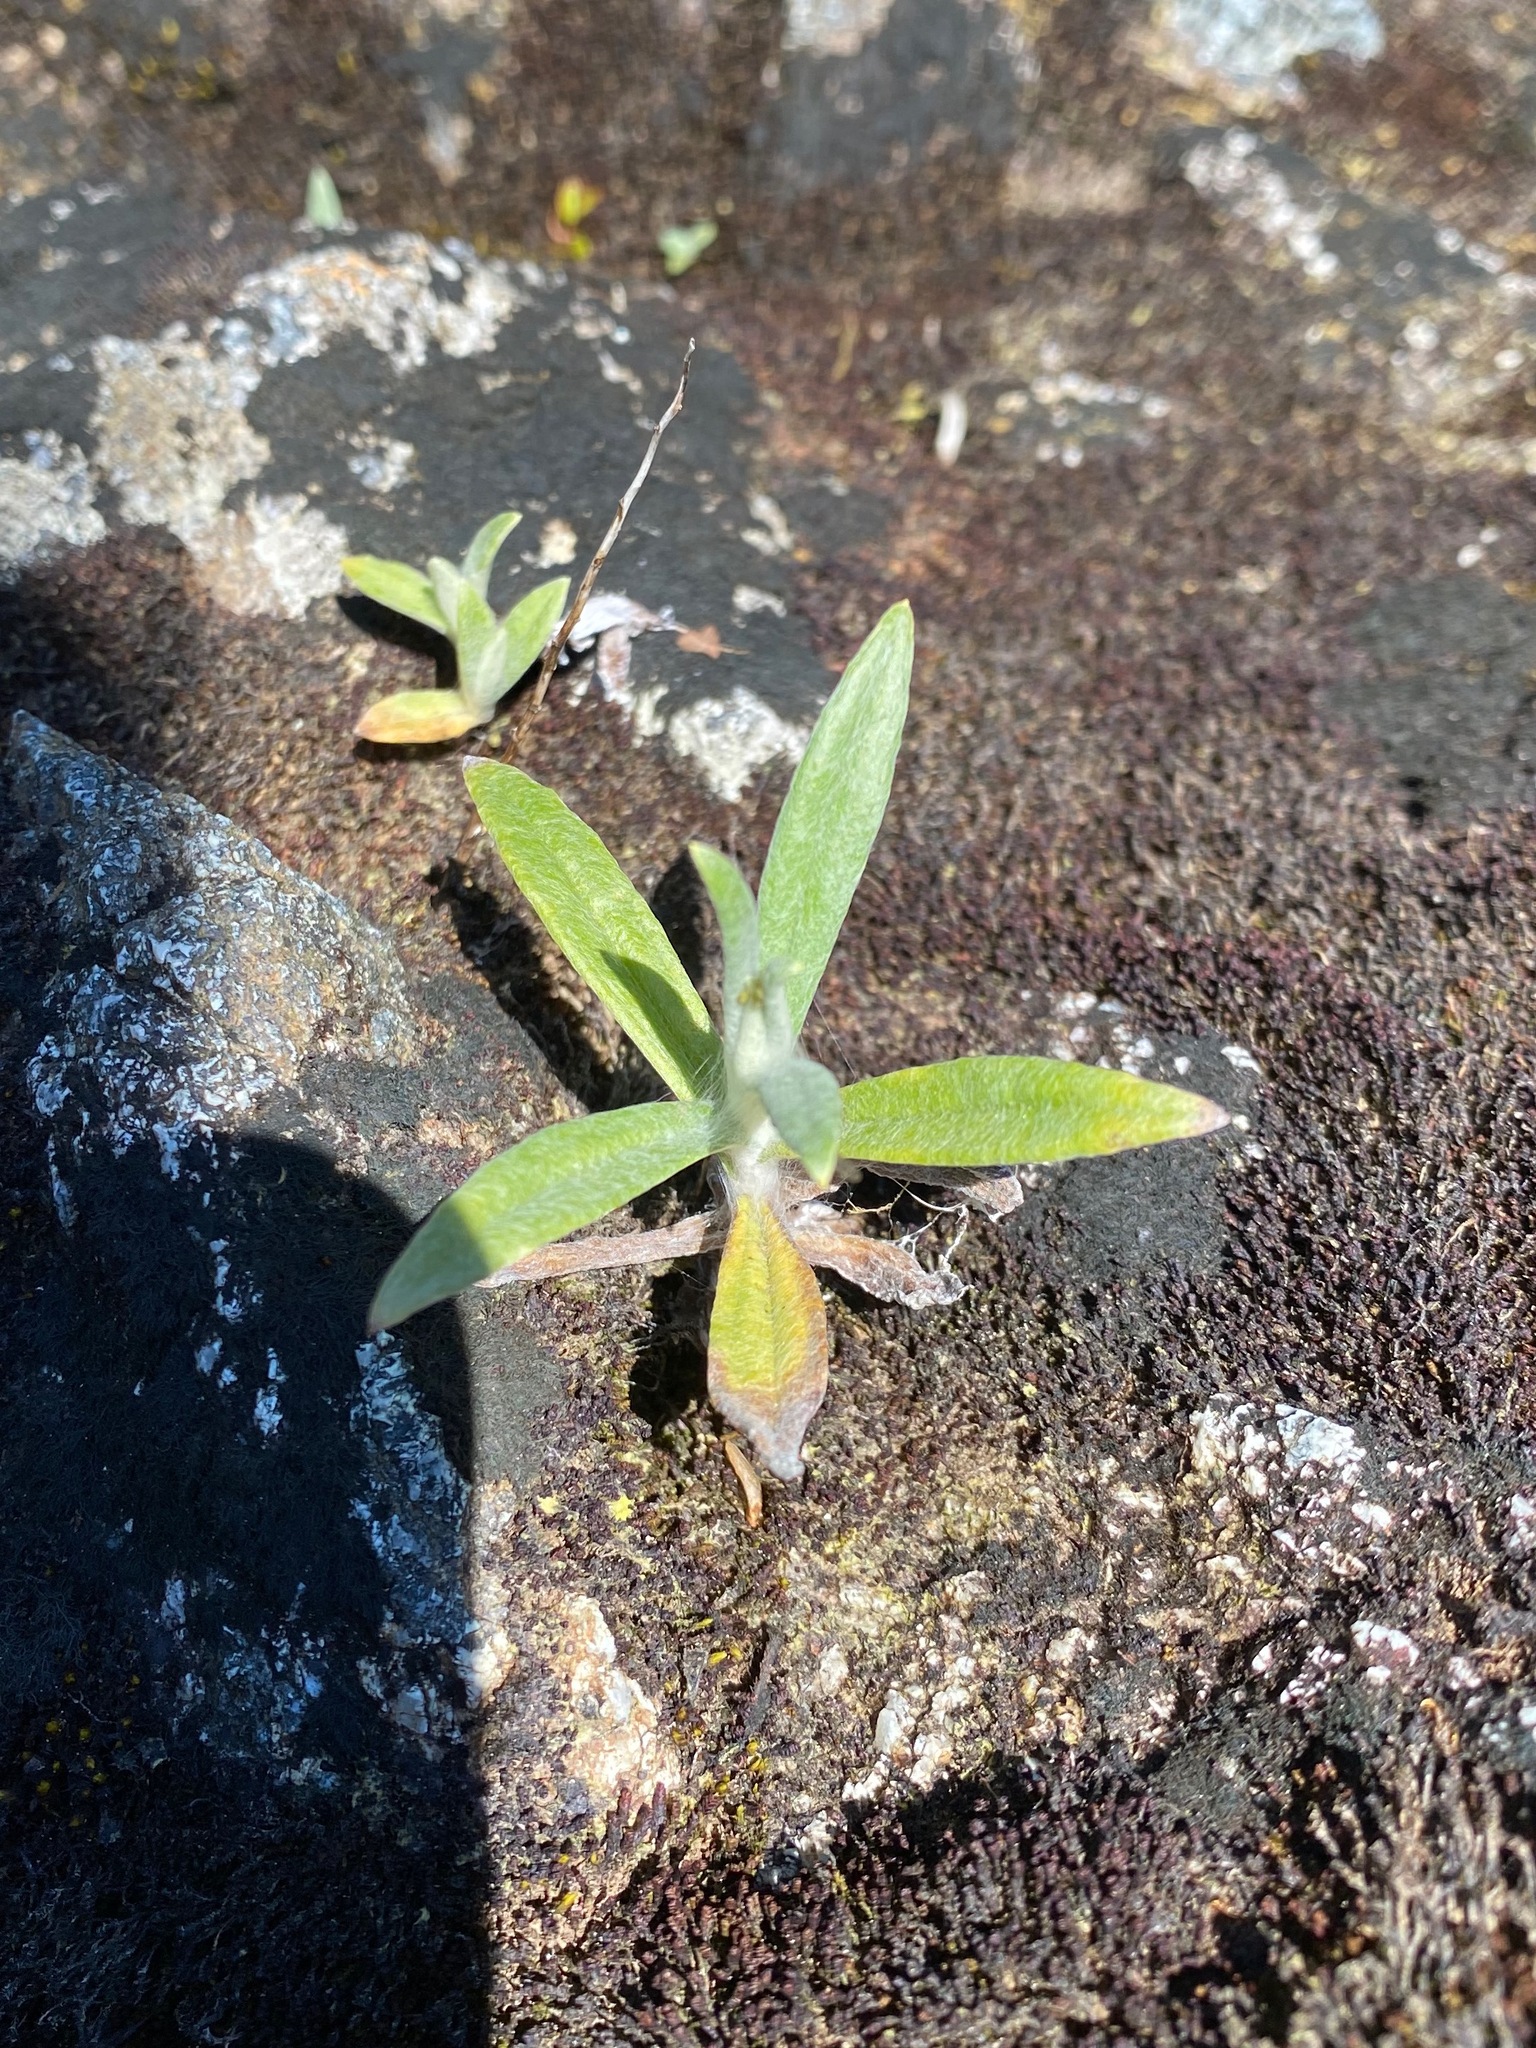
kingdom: Plantae
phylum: Tracheophyta
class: Magnoliopsida
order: Asterales
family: Asteraceae
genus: Anaphalis
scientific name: Anaphalis margaritacea
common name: Pearly everlasting
